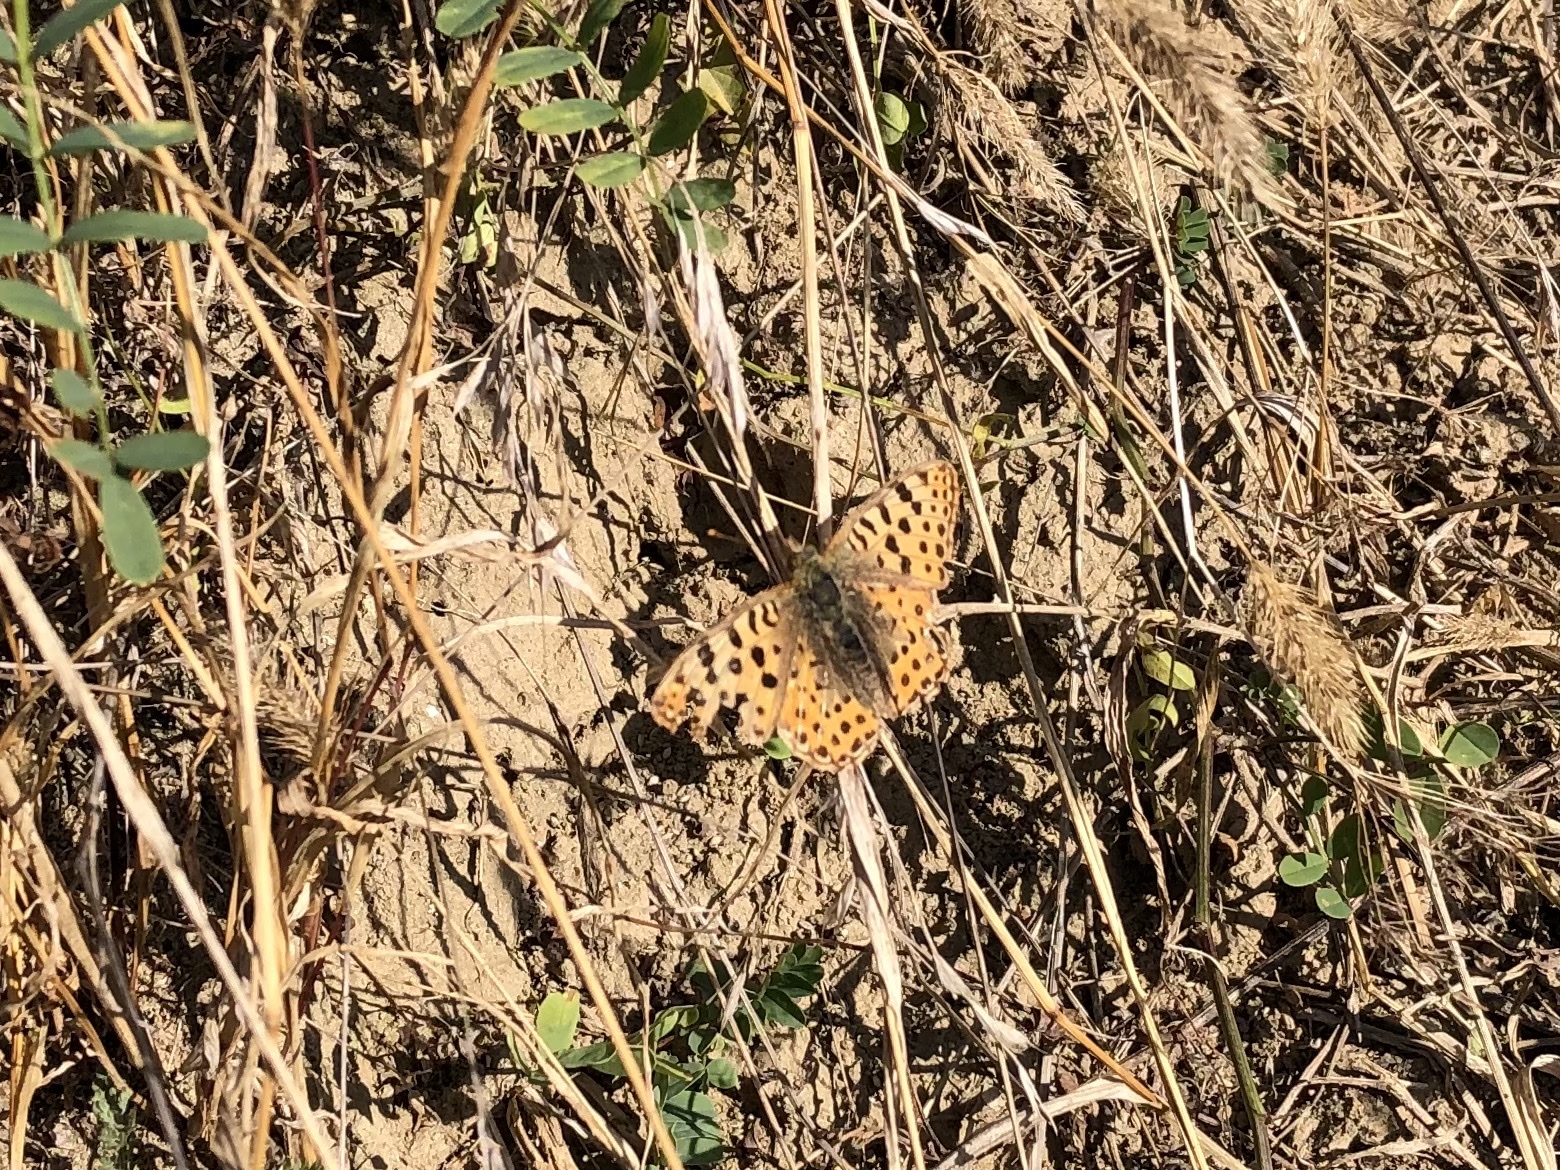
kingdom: Animalia
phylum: Arthropoda
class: Insecta
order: Lepidoptera
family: Nymphalidae
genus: Issoria
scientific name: Issoria lathonia
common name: Queen of spain fritillary
